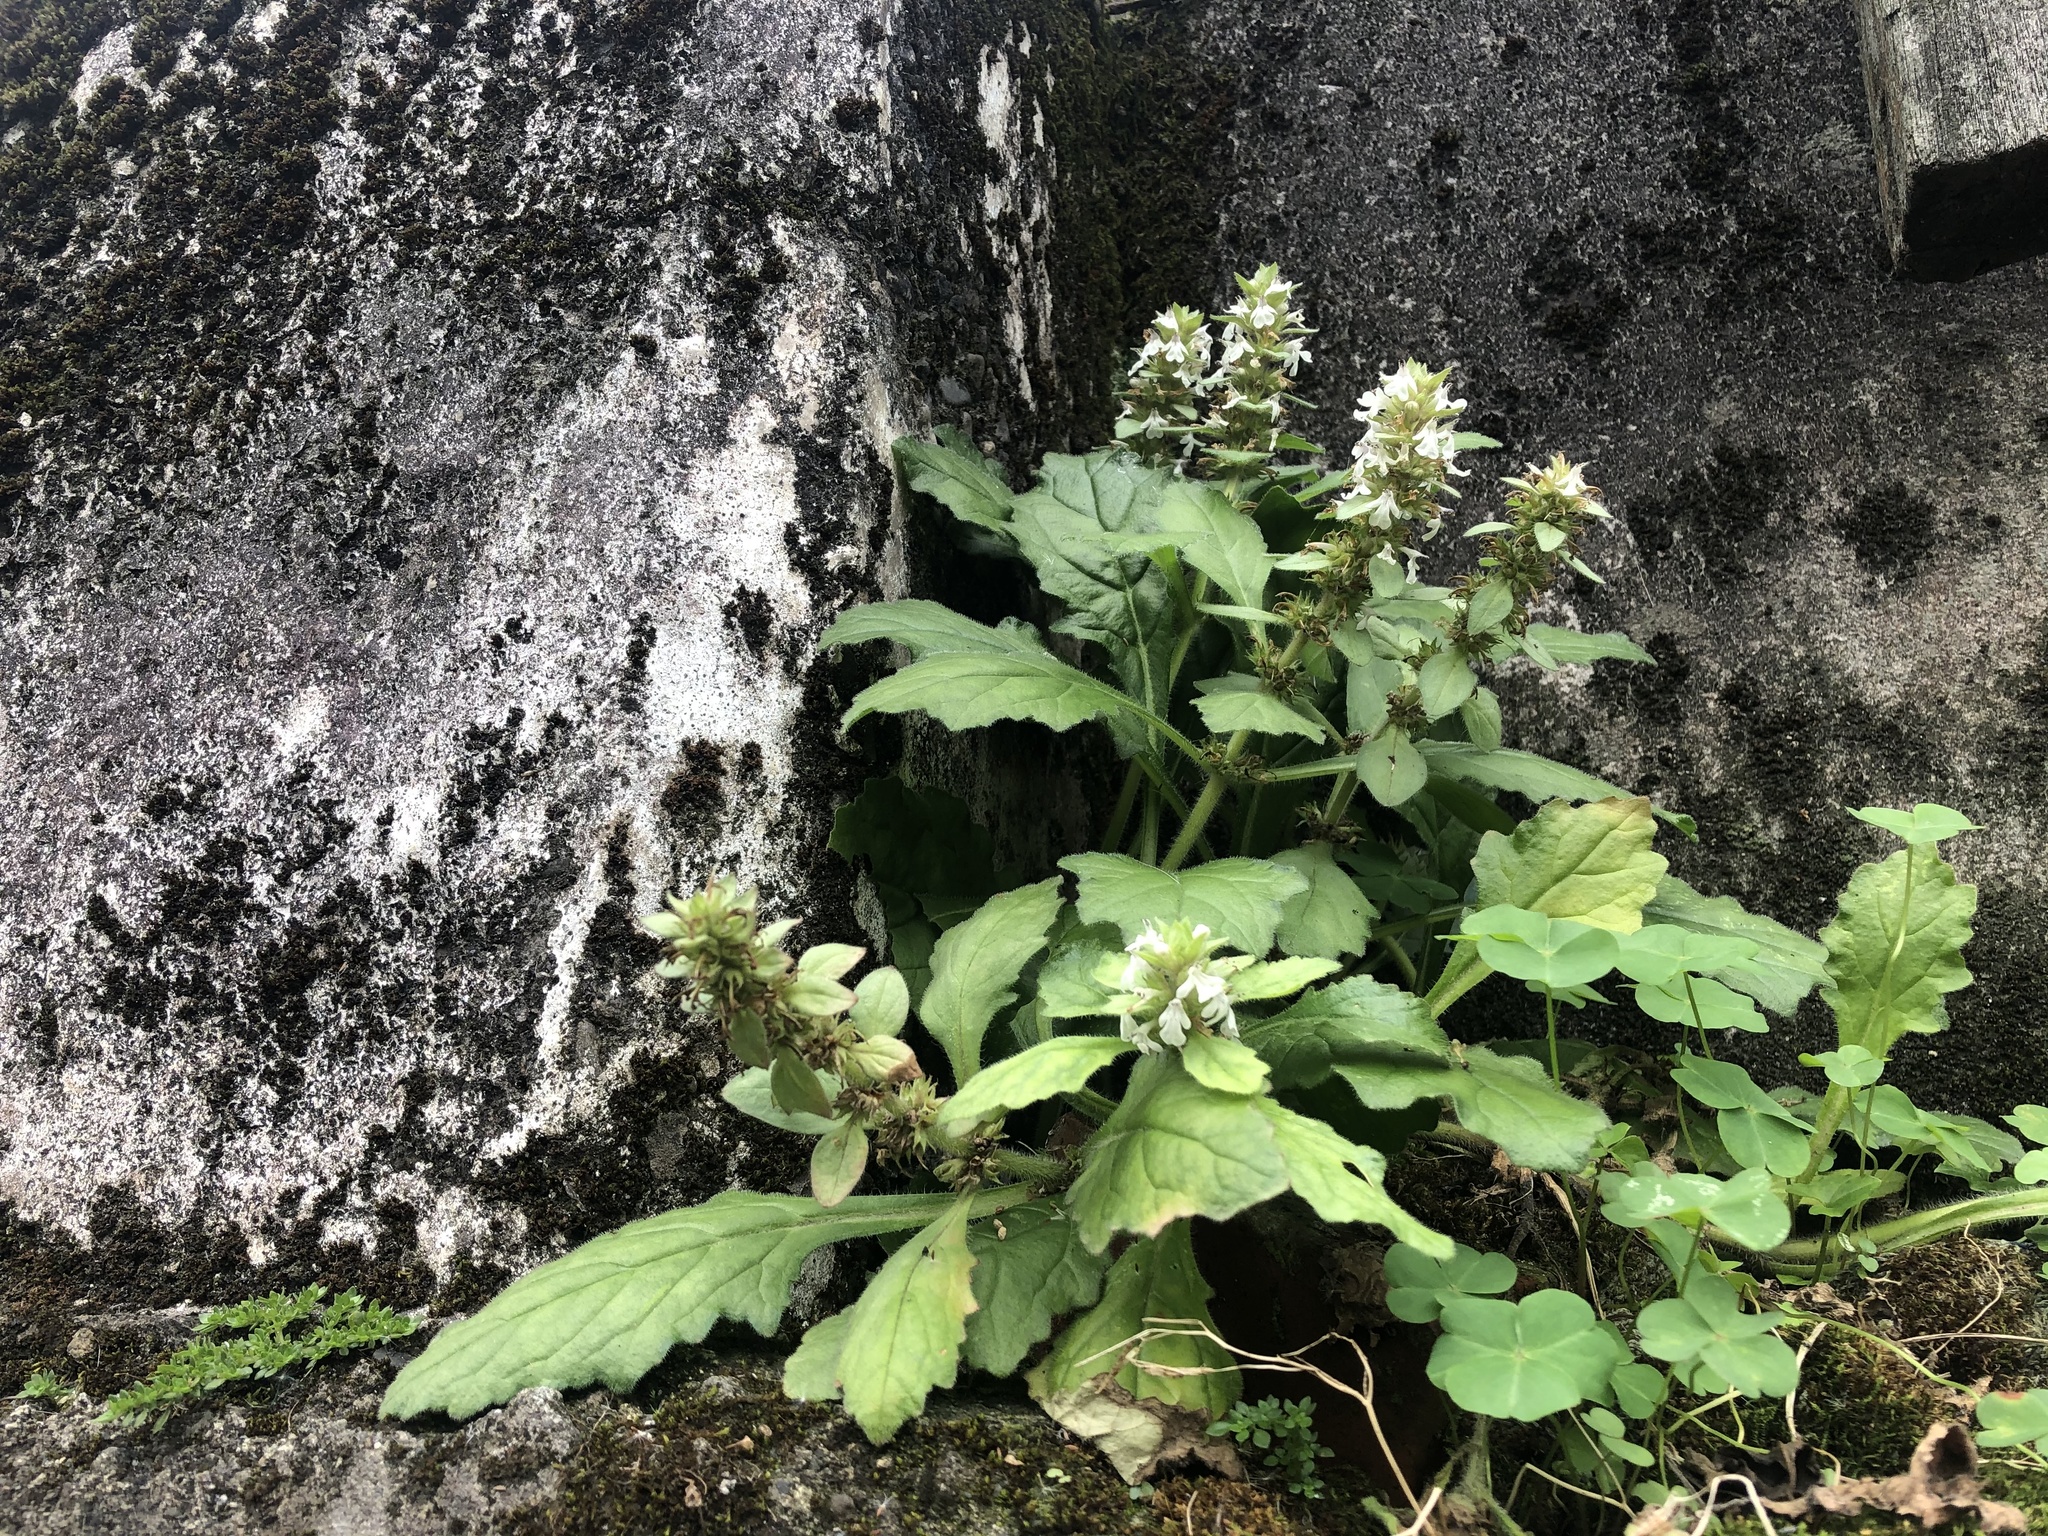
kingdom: Plantae
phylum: Tracheophyta
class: Magnoliopsida
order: Lamiales
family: Lamiaceae
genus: Ajuga
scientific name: Ajuga nipponensis
